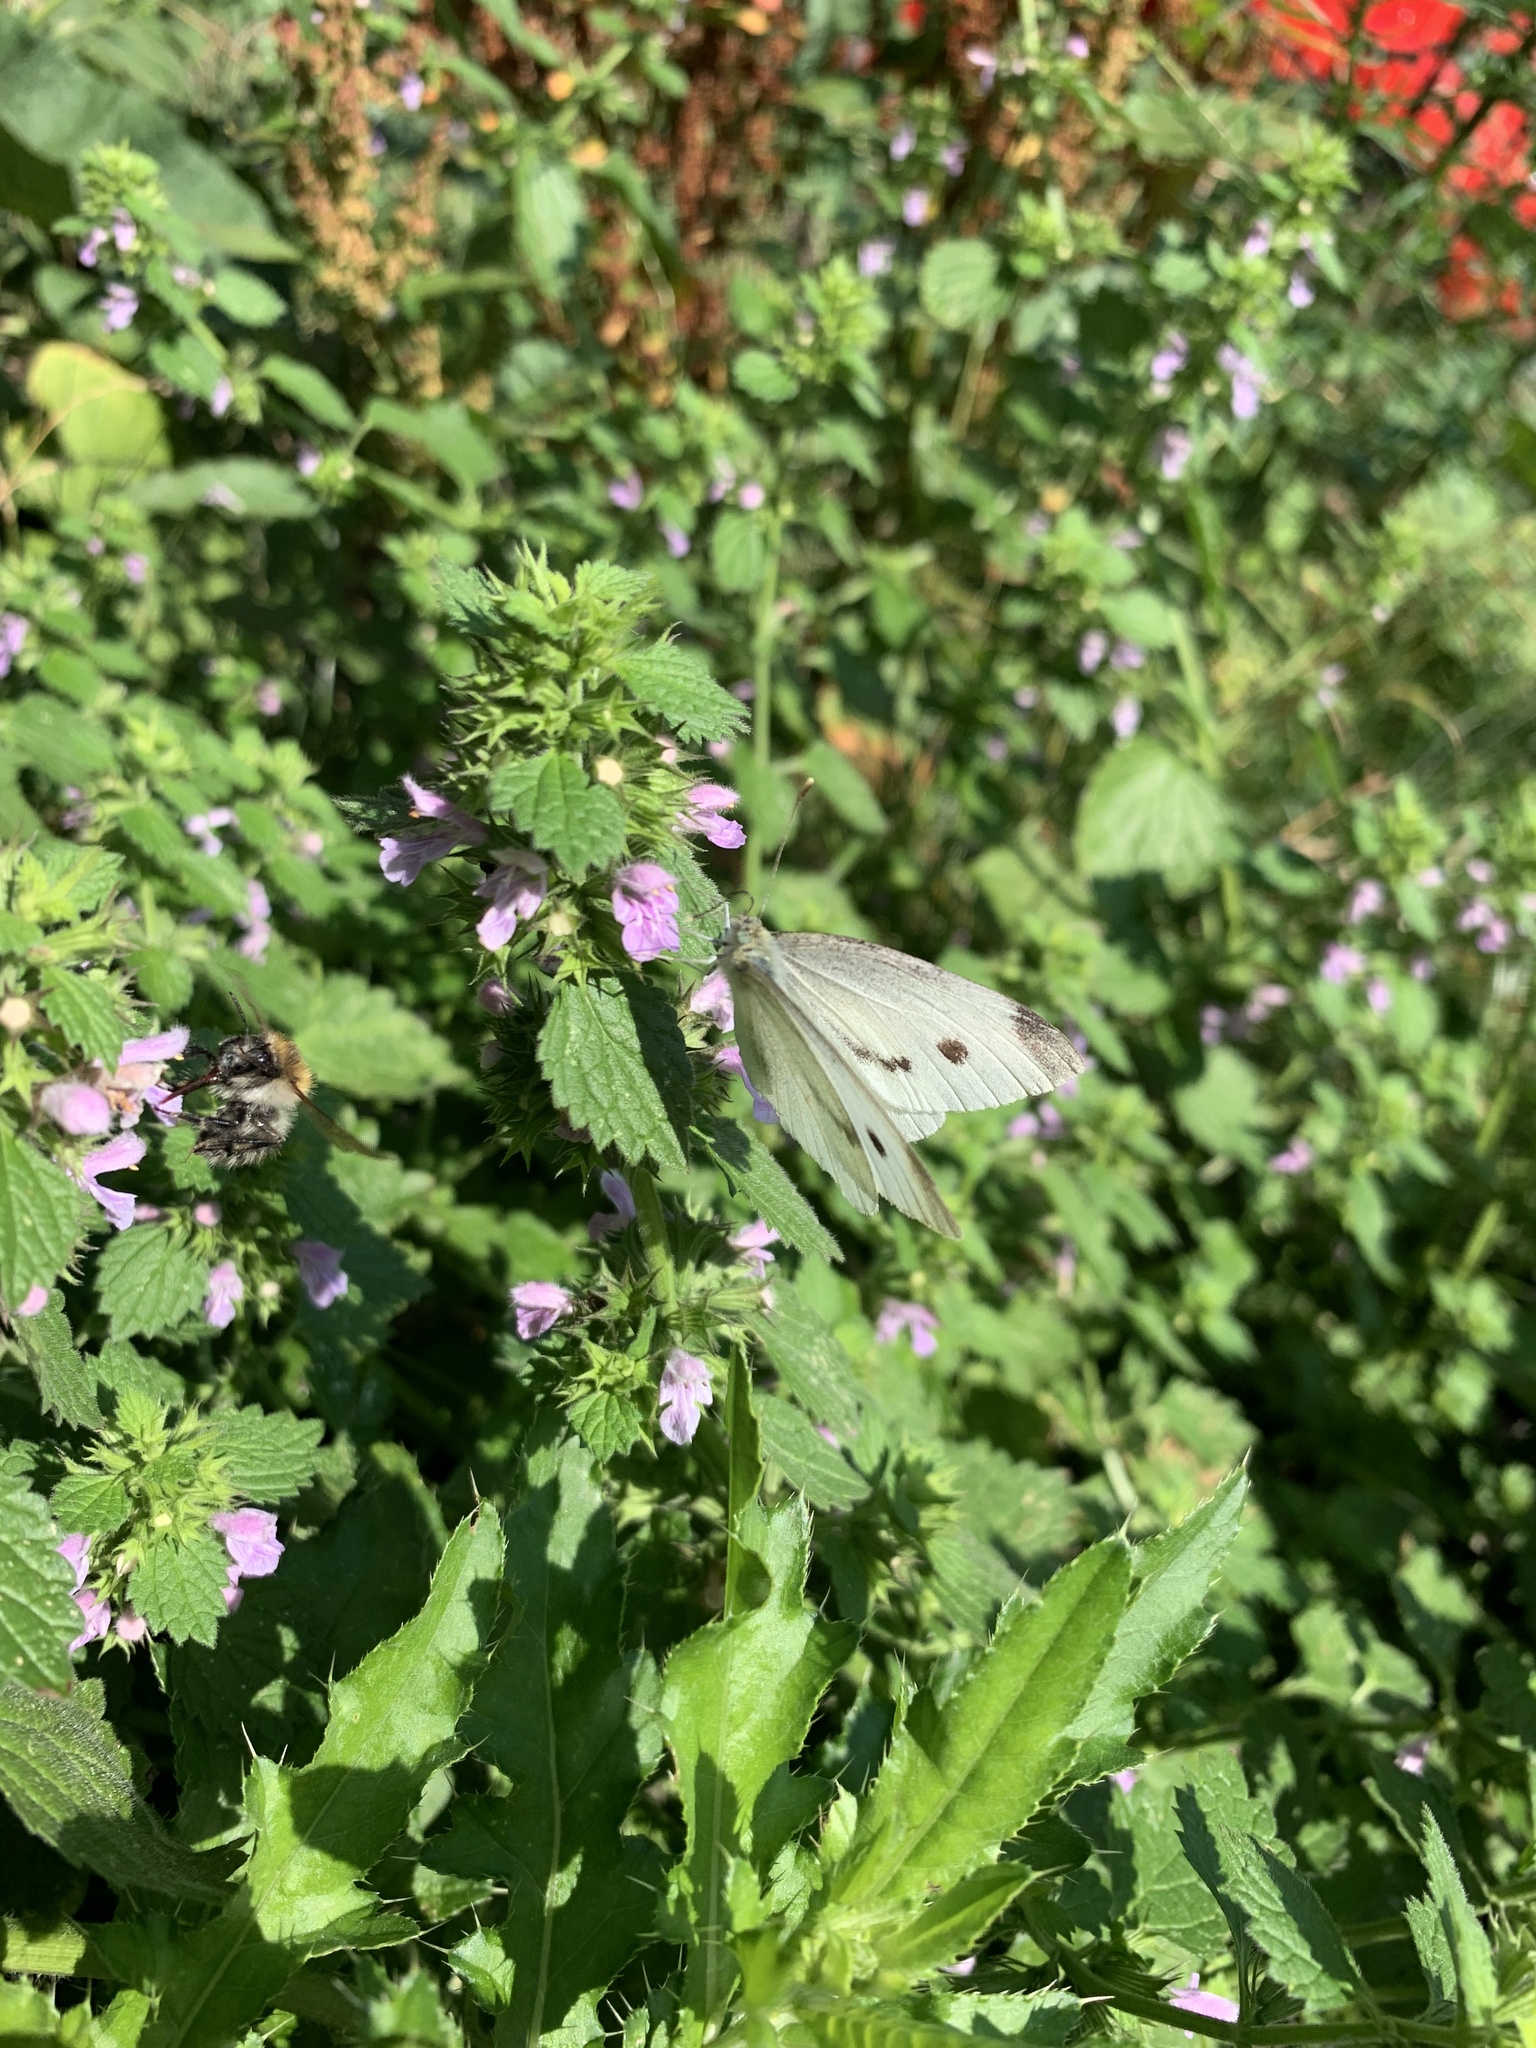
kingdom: Animalia
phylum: Arthropoda
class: Insecta
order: Lepidoptera
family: Pieridae
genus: Pieris
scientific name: Pieris rapae
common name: Small white
